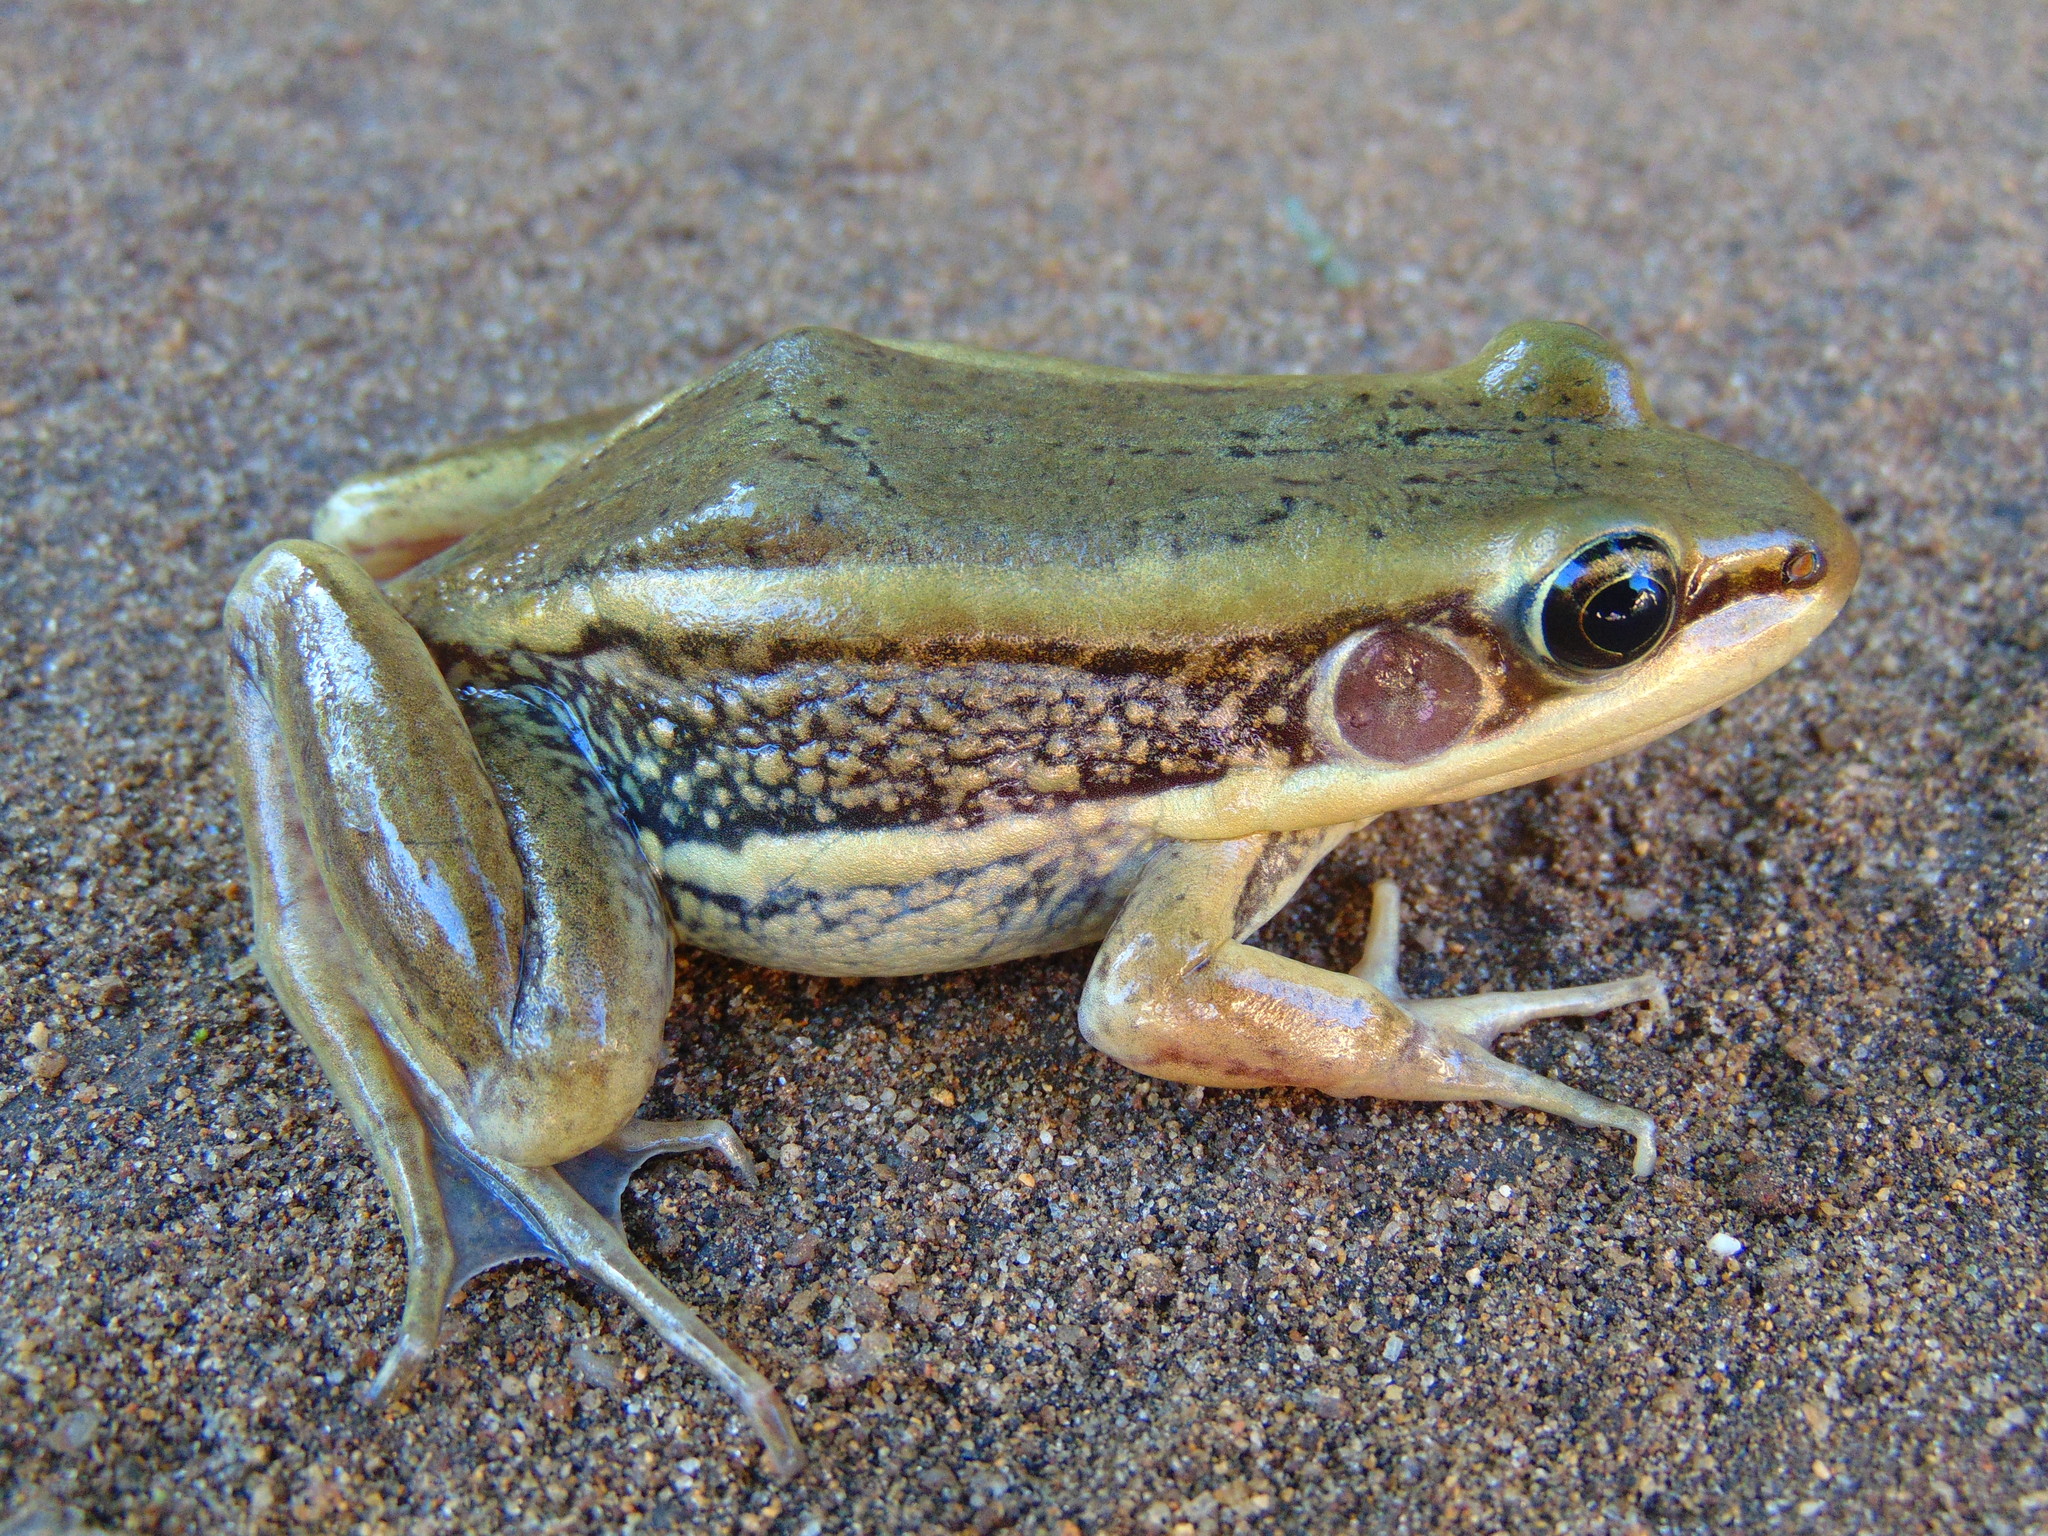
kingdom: Animalia
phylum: Chordata
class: Amphibia
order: Anura
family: Ranidae
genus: Amnirana
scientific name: Amnirana galamensis
